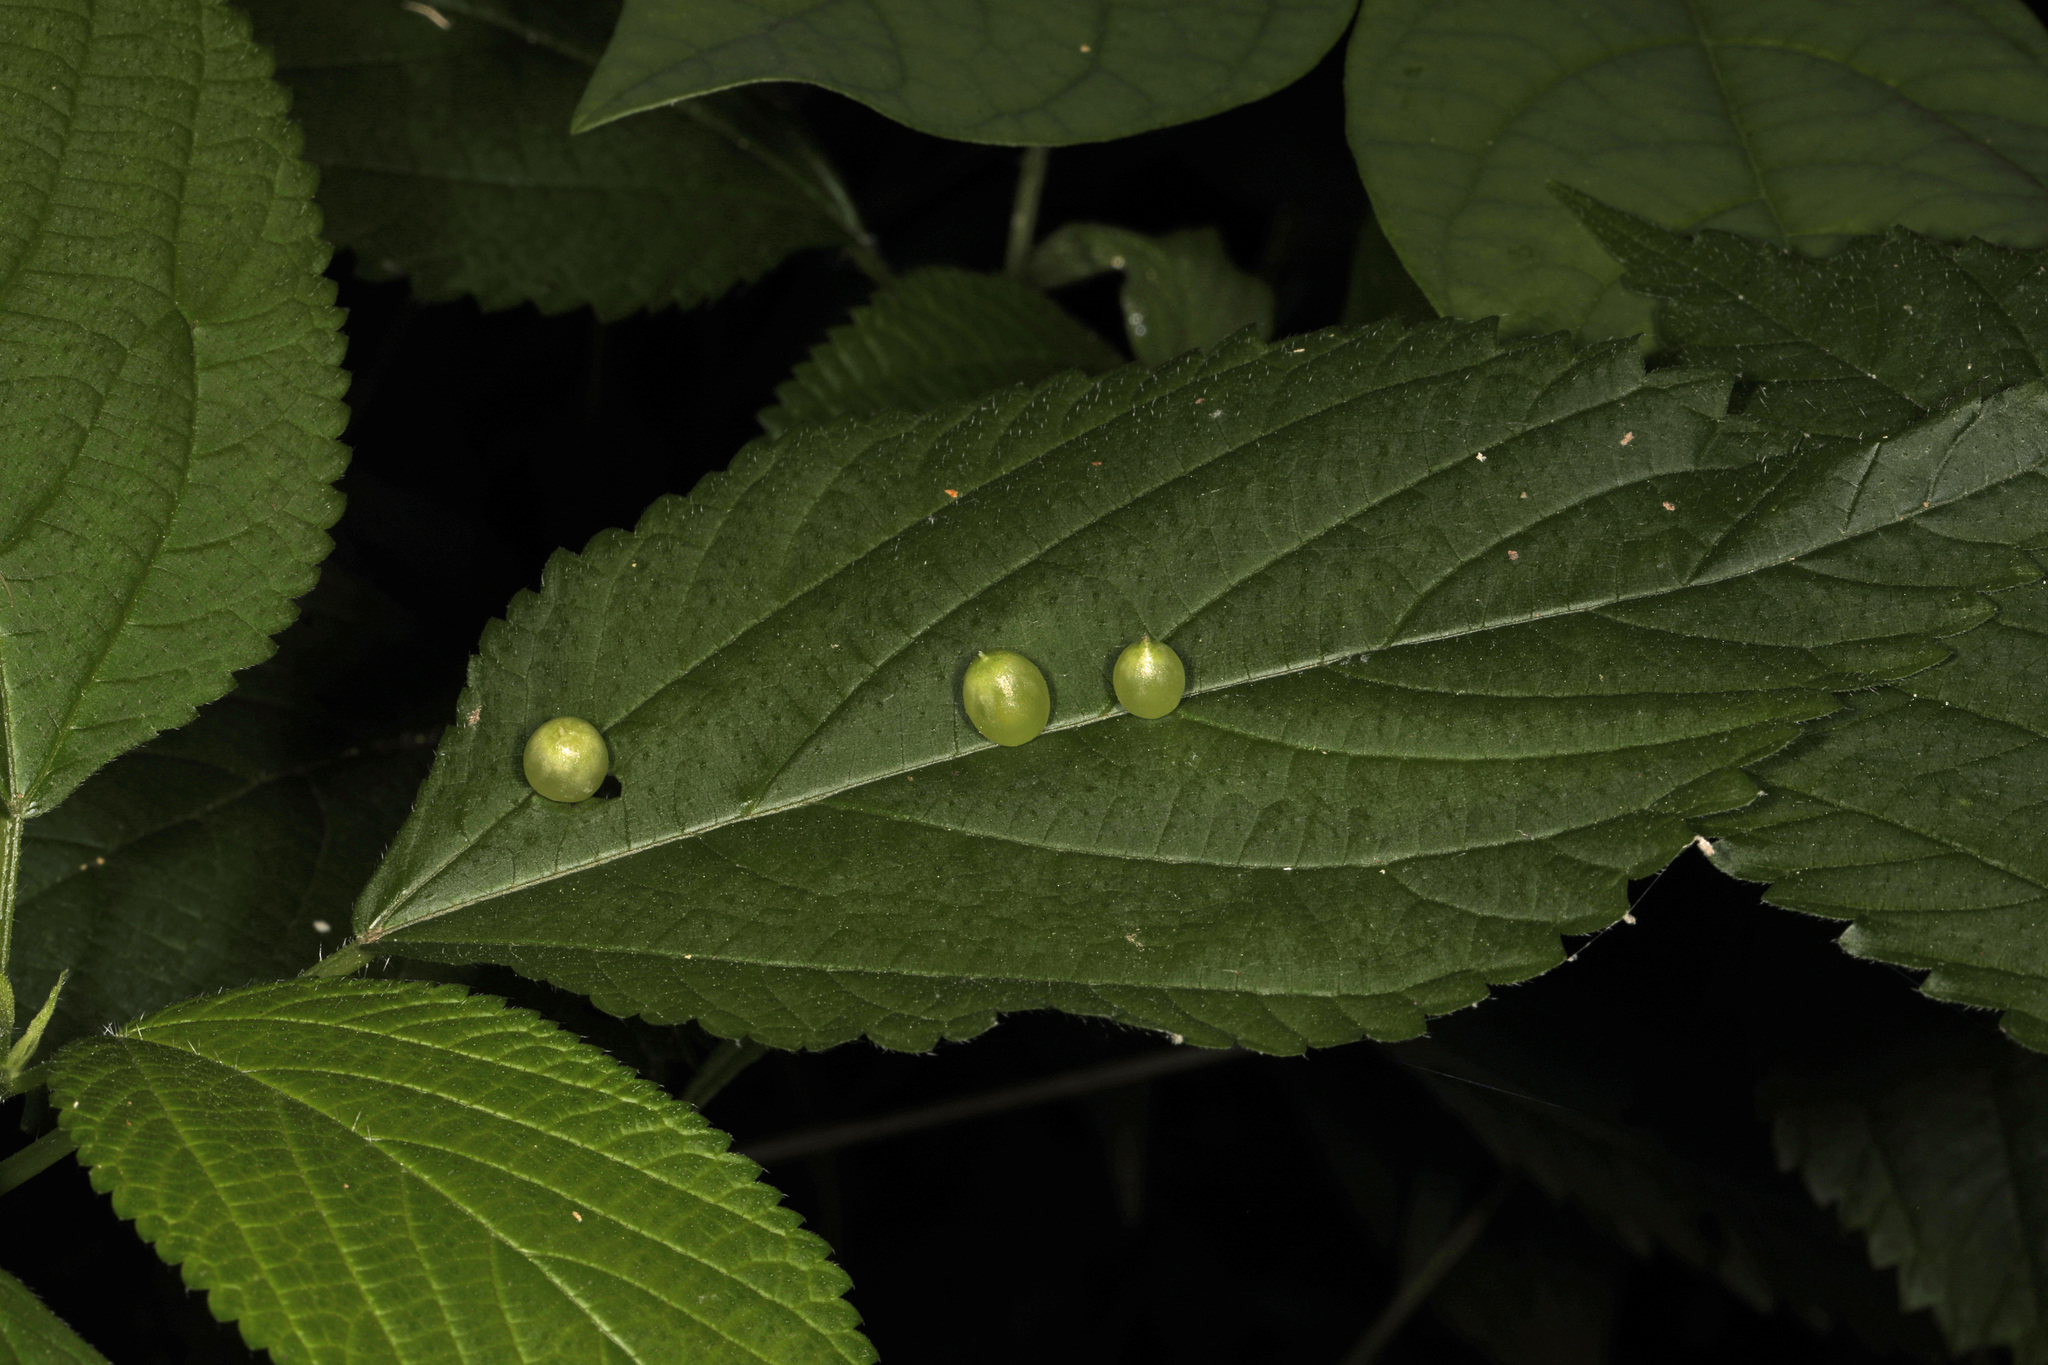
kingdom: Animalia
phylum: Arthropoda
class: Insecta
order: Diptera
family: Cecidomyiidae
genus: Dasineura
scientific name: Dasineura investita
